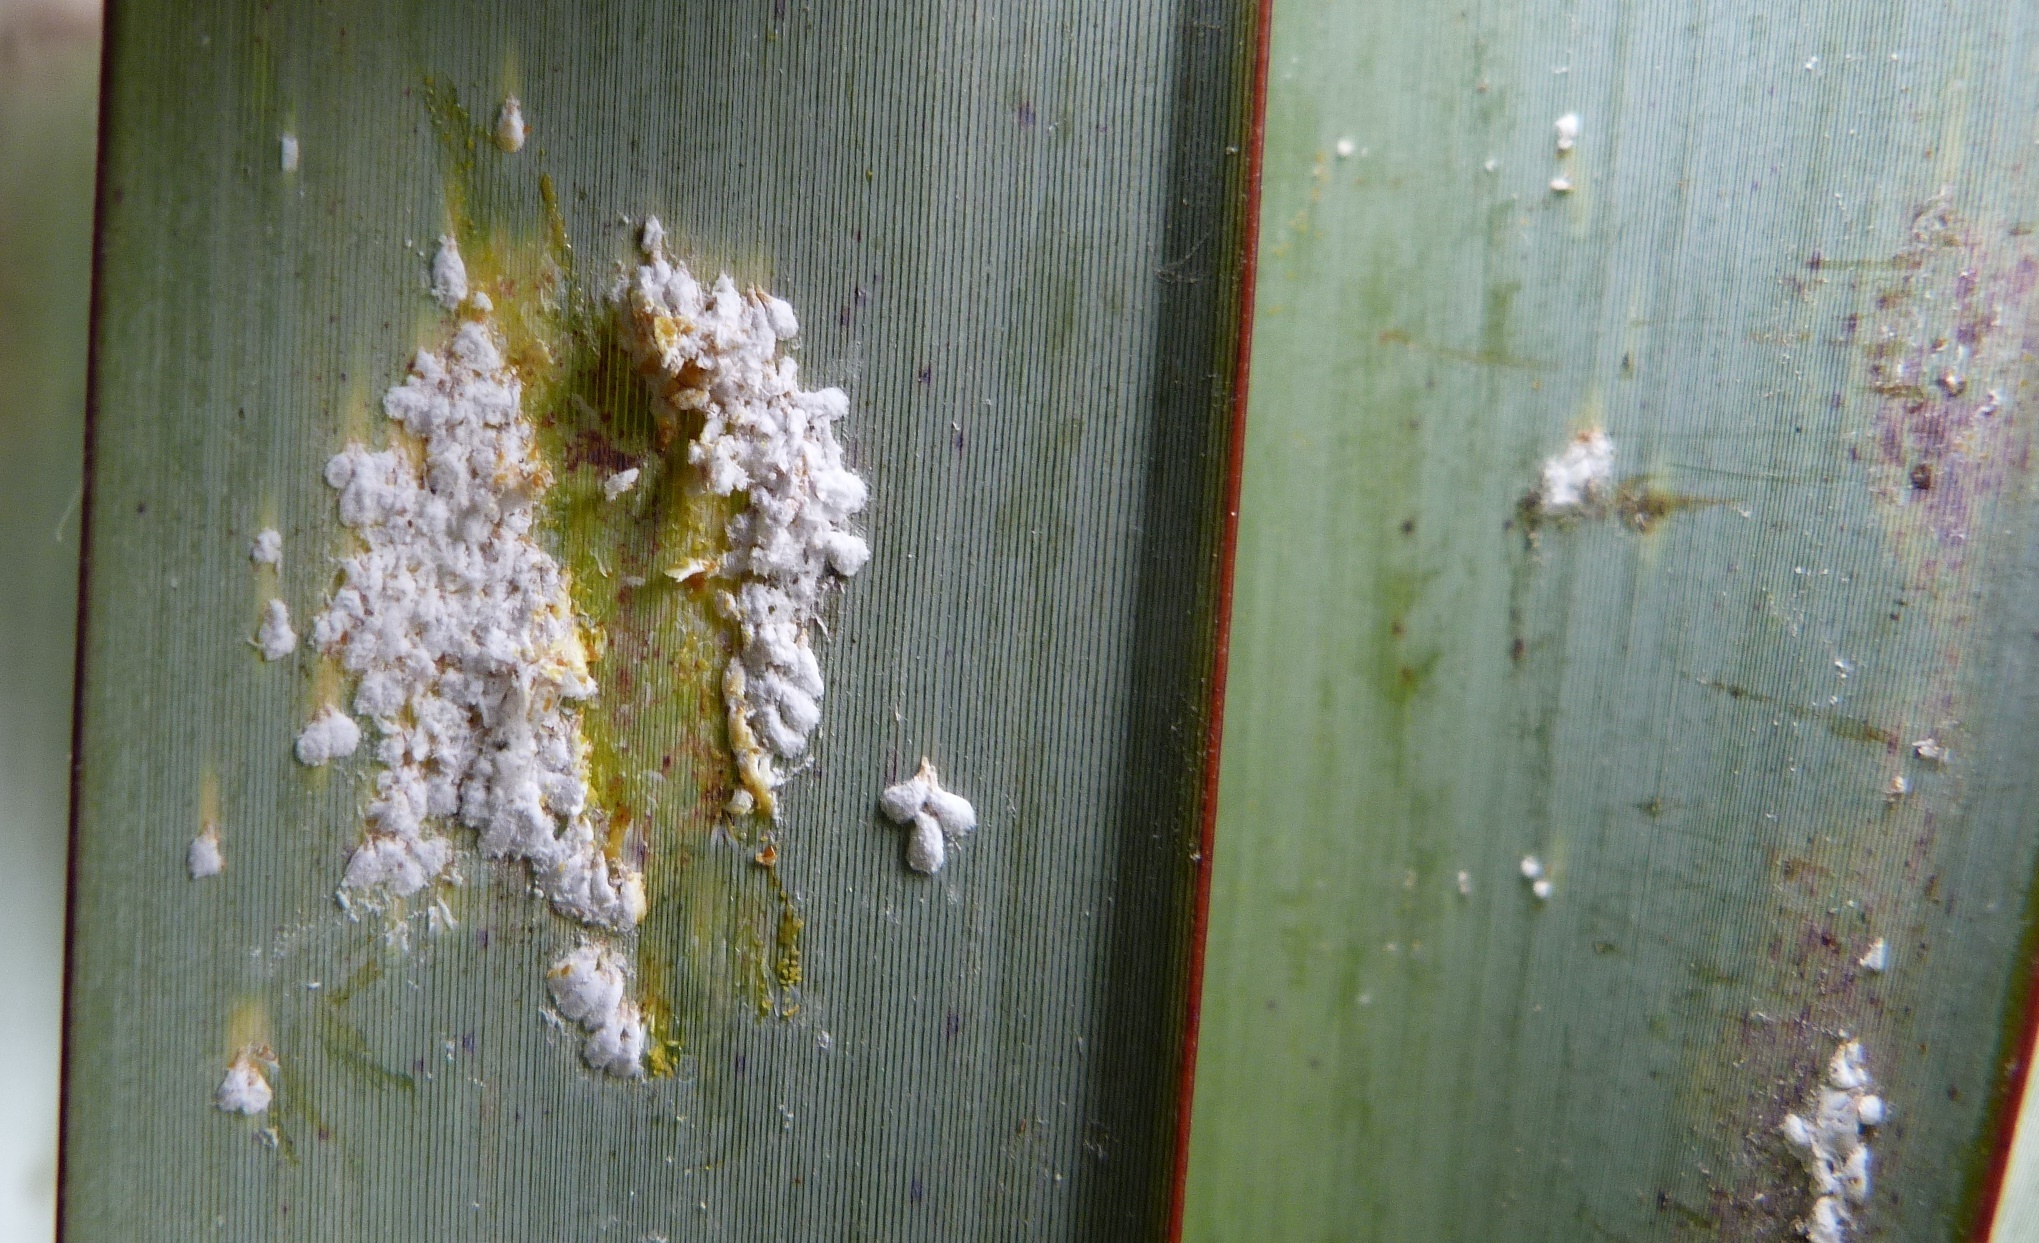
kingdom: Animalia
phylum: Arthropoda
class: Insecta
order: Hemiptera
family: Diaspididae
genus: Poliaspis
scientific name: Poliaspis floccosa
